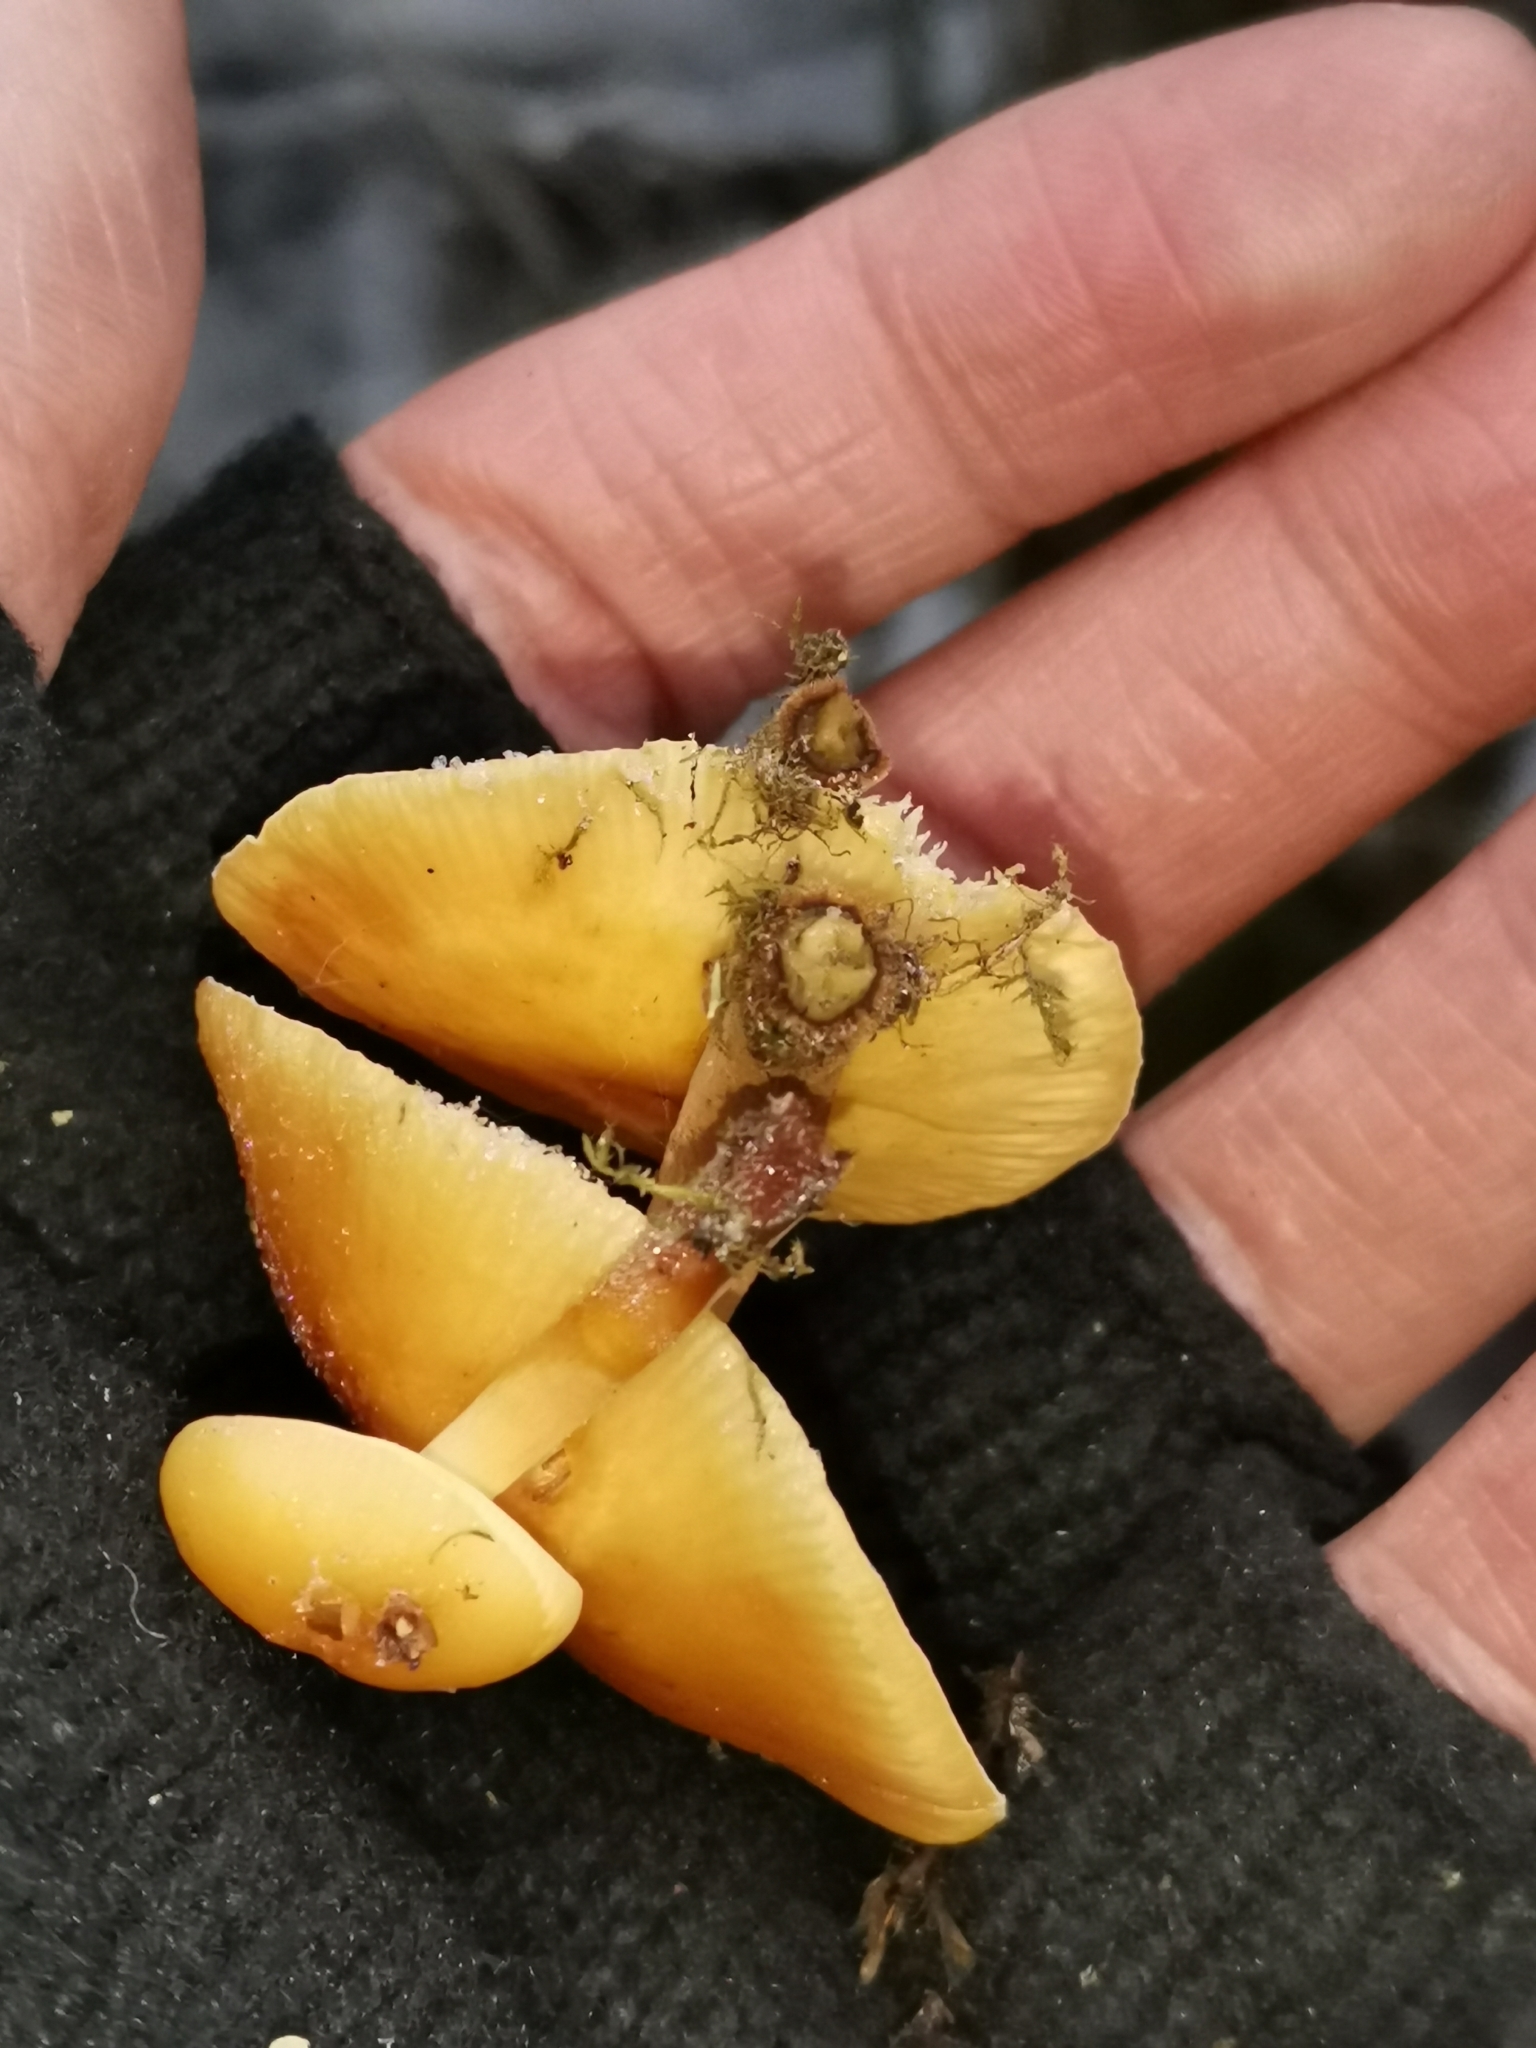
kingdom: Fungi
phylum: Basidiomycota
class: Agaricomycetes
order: Agaricales
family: Physalacriaceae
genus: Flammulina
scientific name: Flammulina
